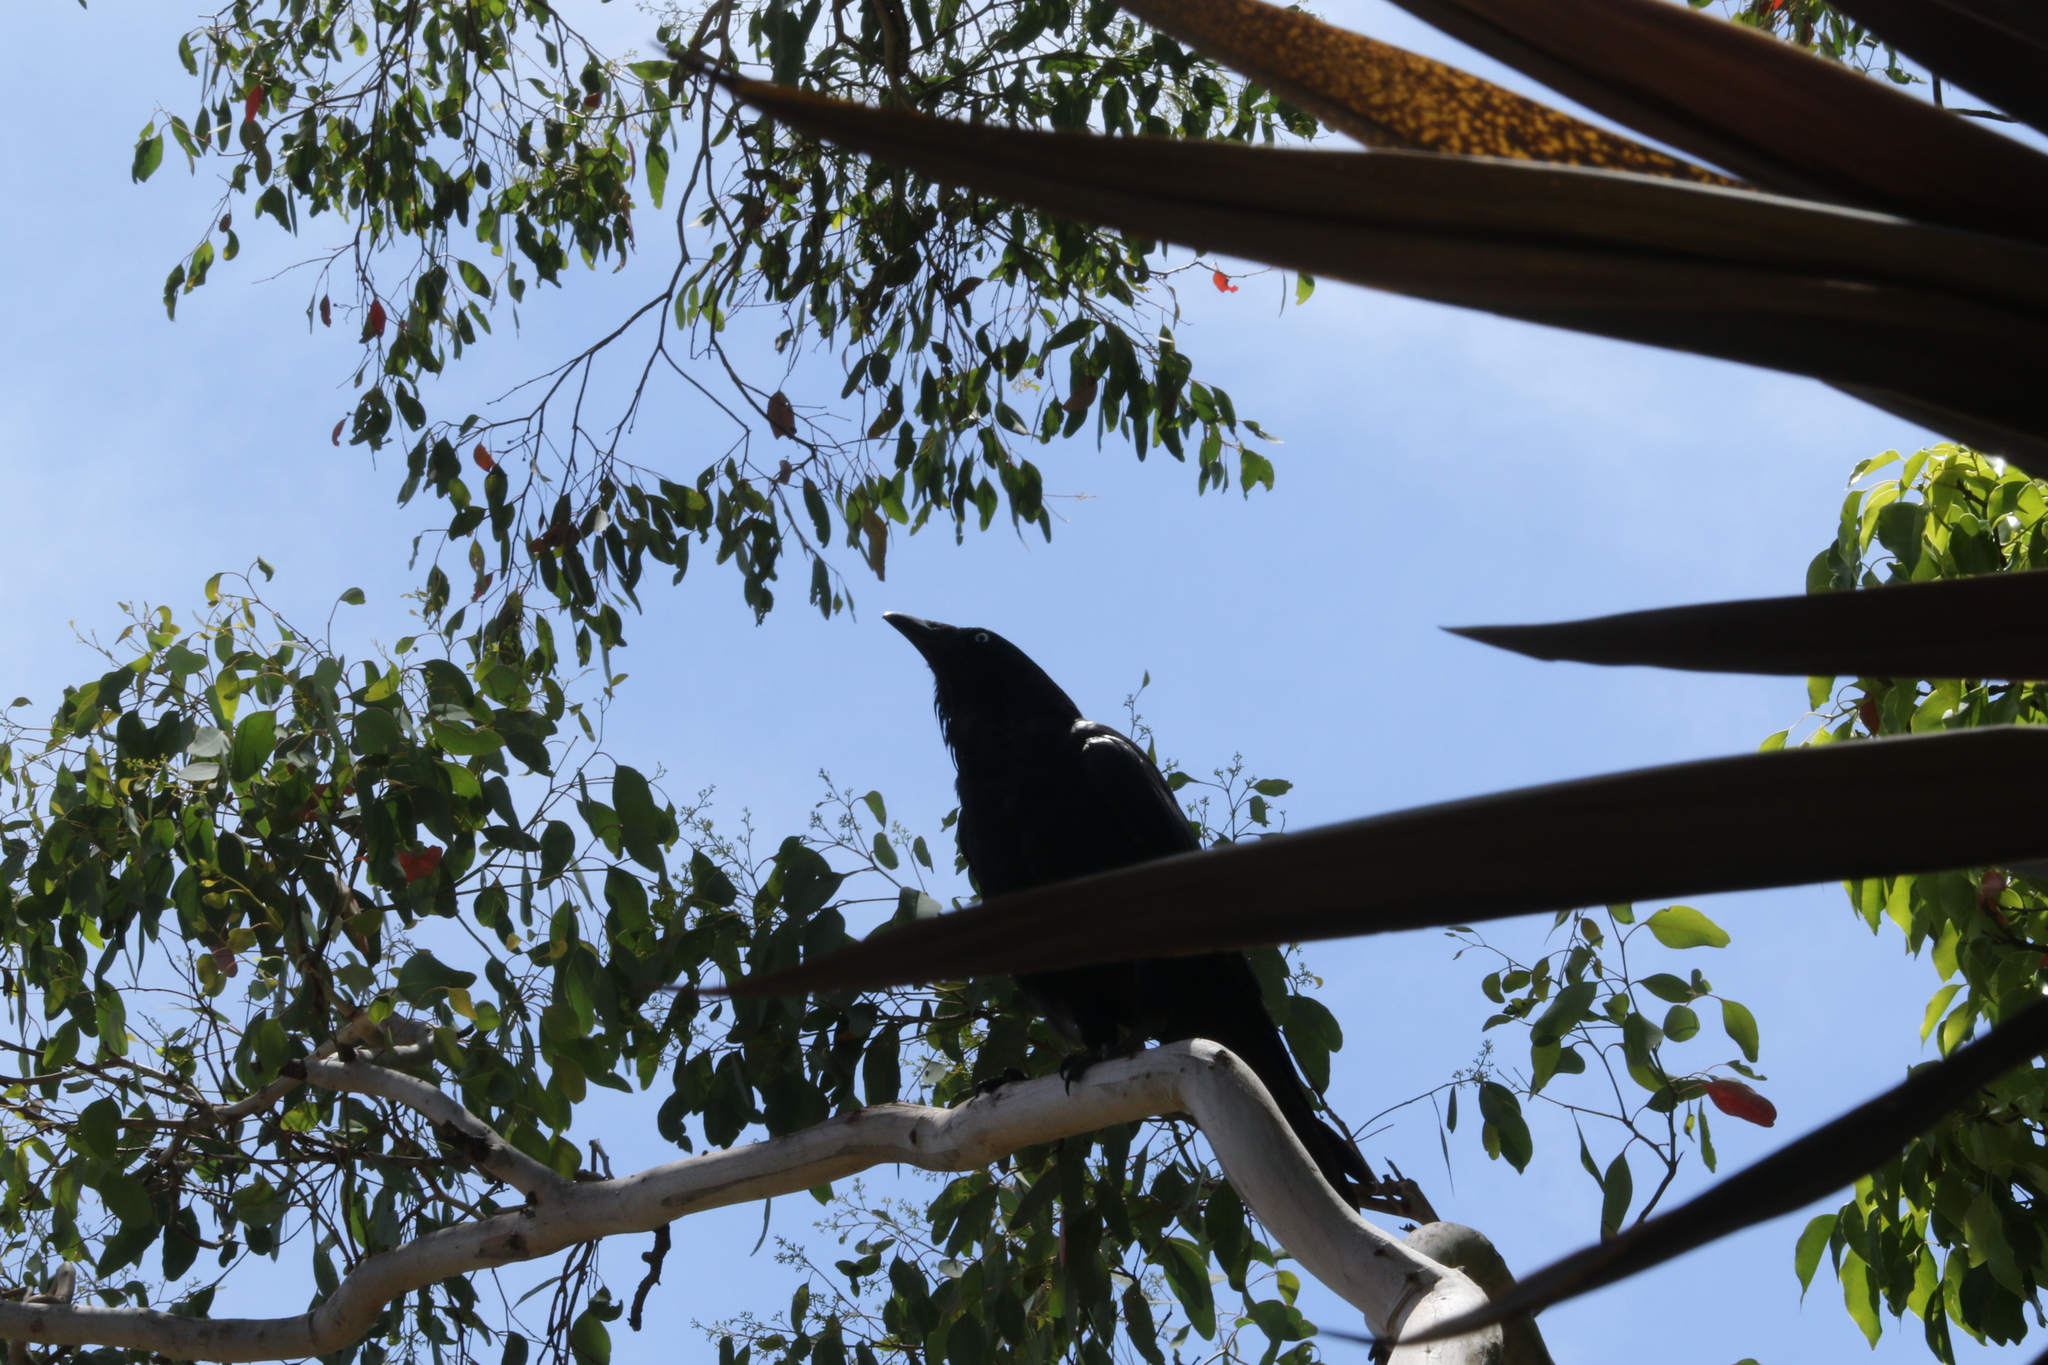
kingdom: Animalia
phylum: Chordata
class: Aves
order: Passeriformes
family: Corvidae
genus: Corvus
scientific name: Corvus coronoides
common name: Australian raven
